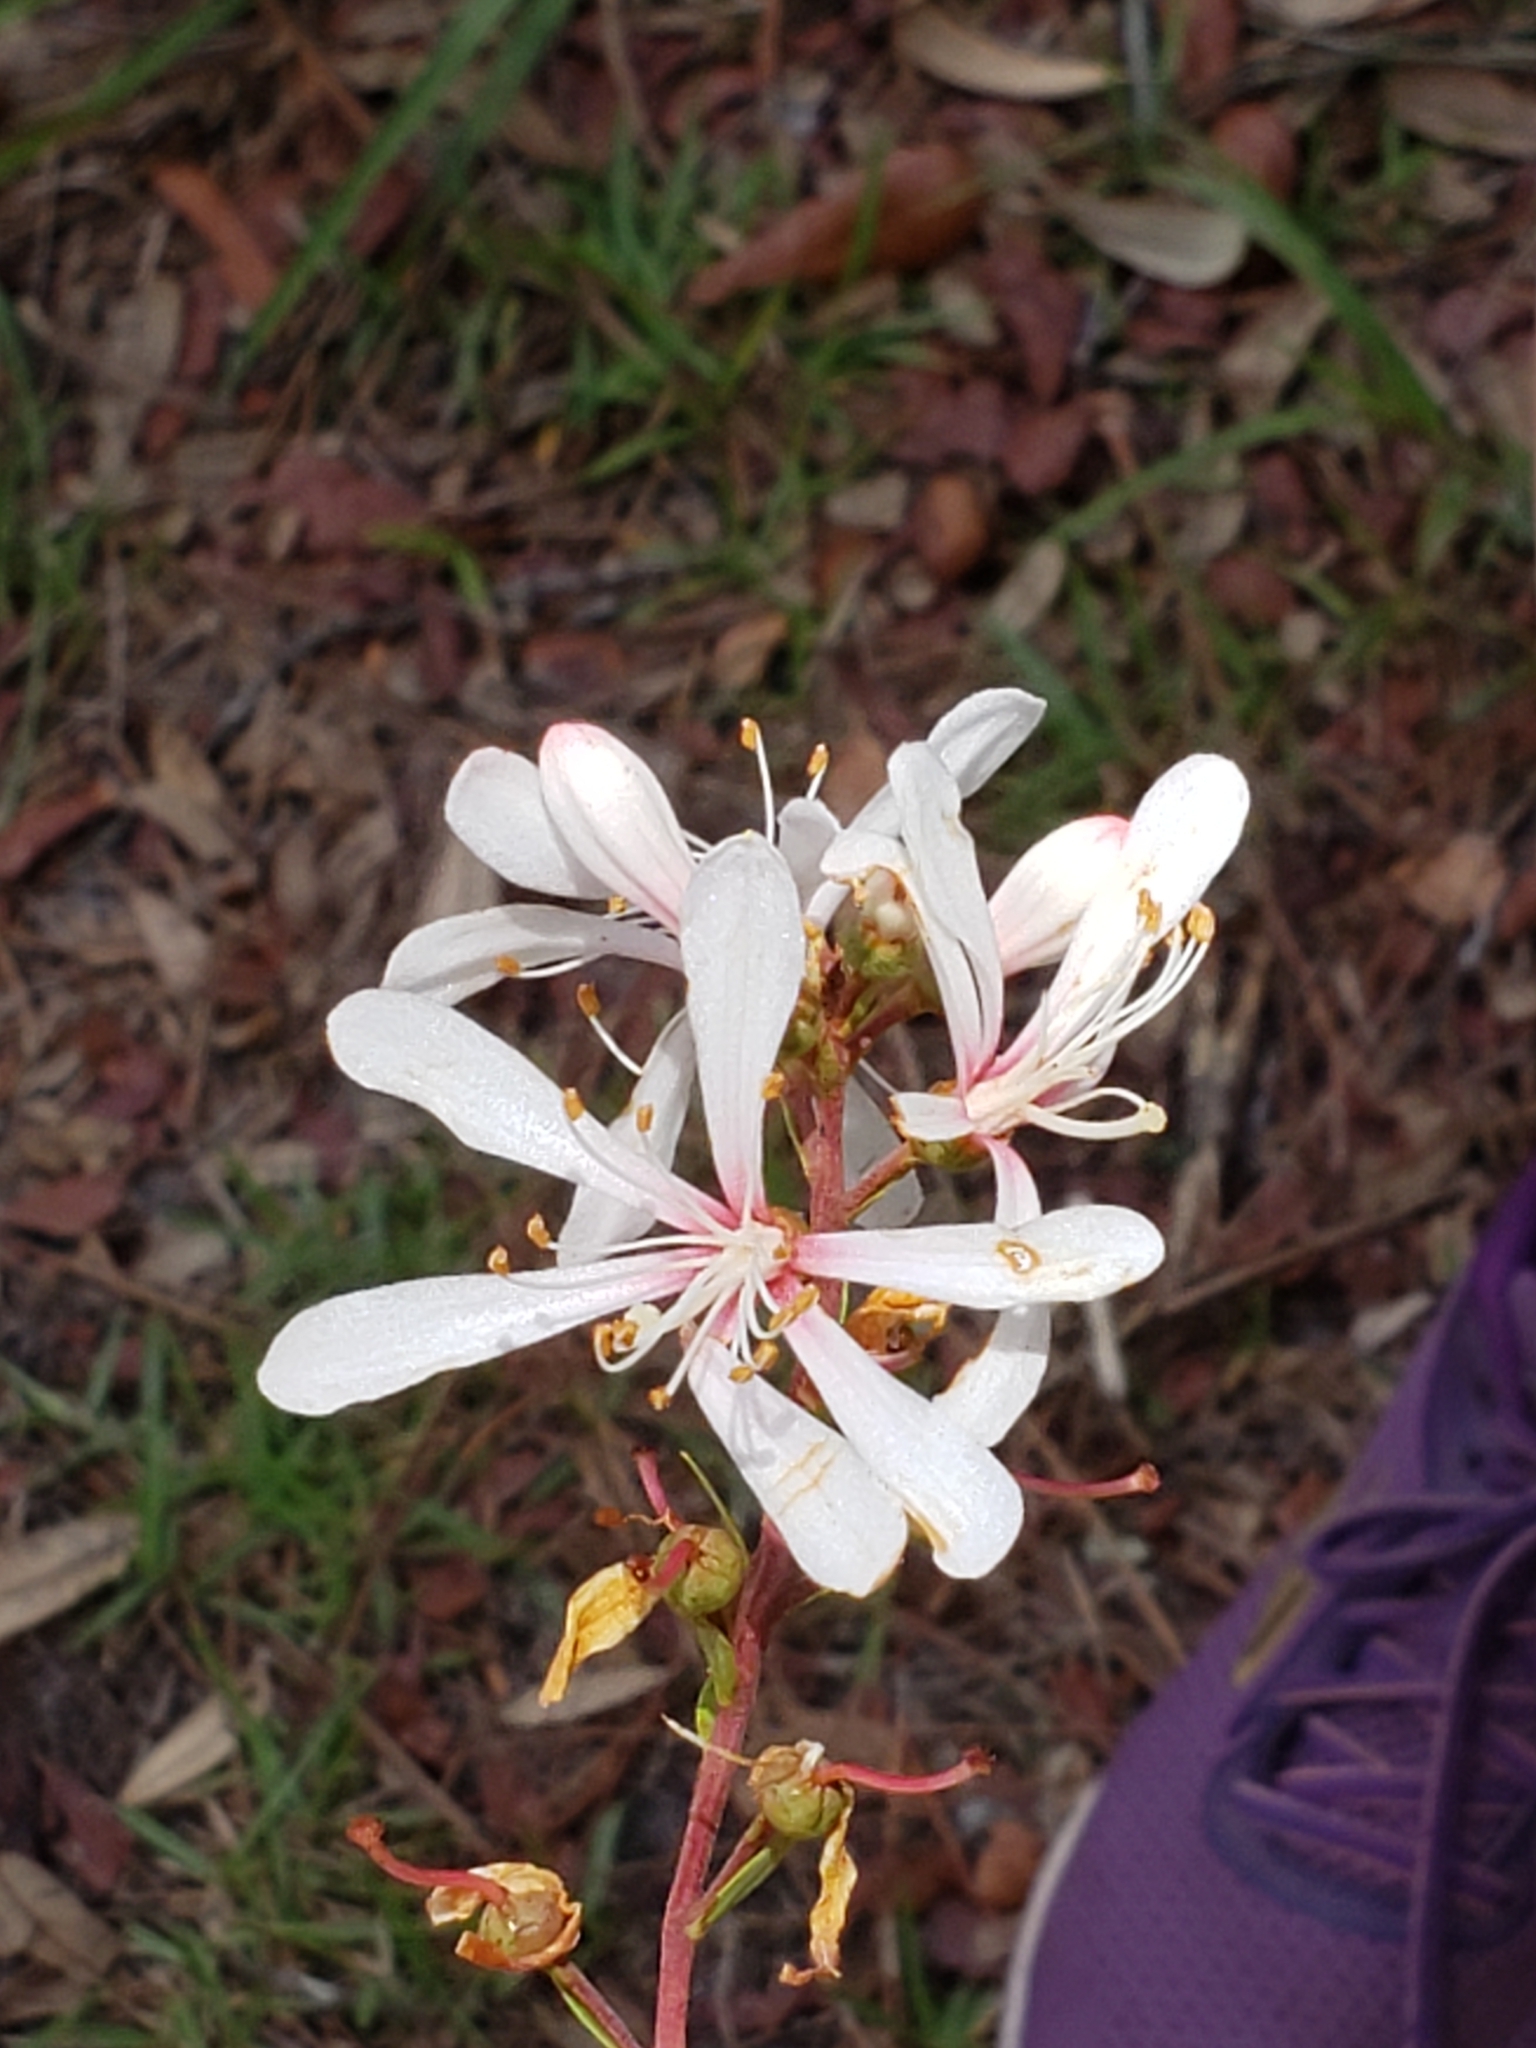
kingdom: Plantae
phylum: Tracheophyta
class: Magnoliopsida
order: Ericales
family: Ericaceae
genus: Bejaria
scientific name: Bejaria racemosa
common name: Tarflower
